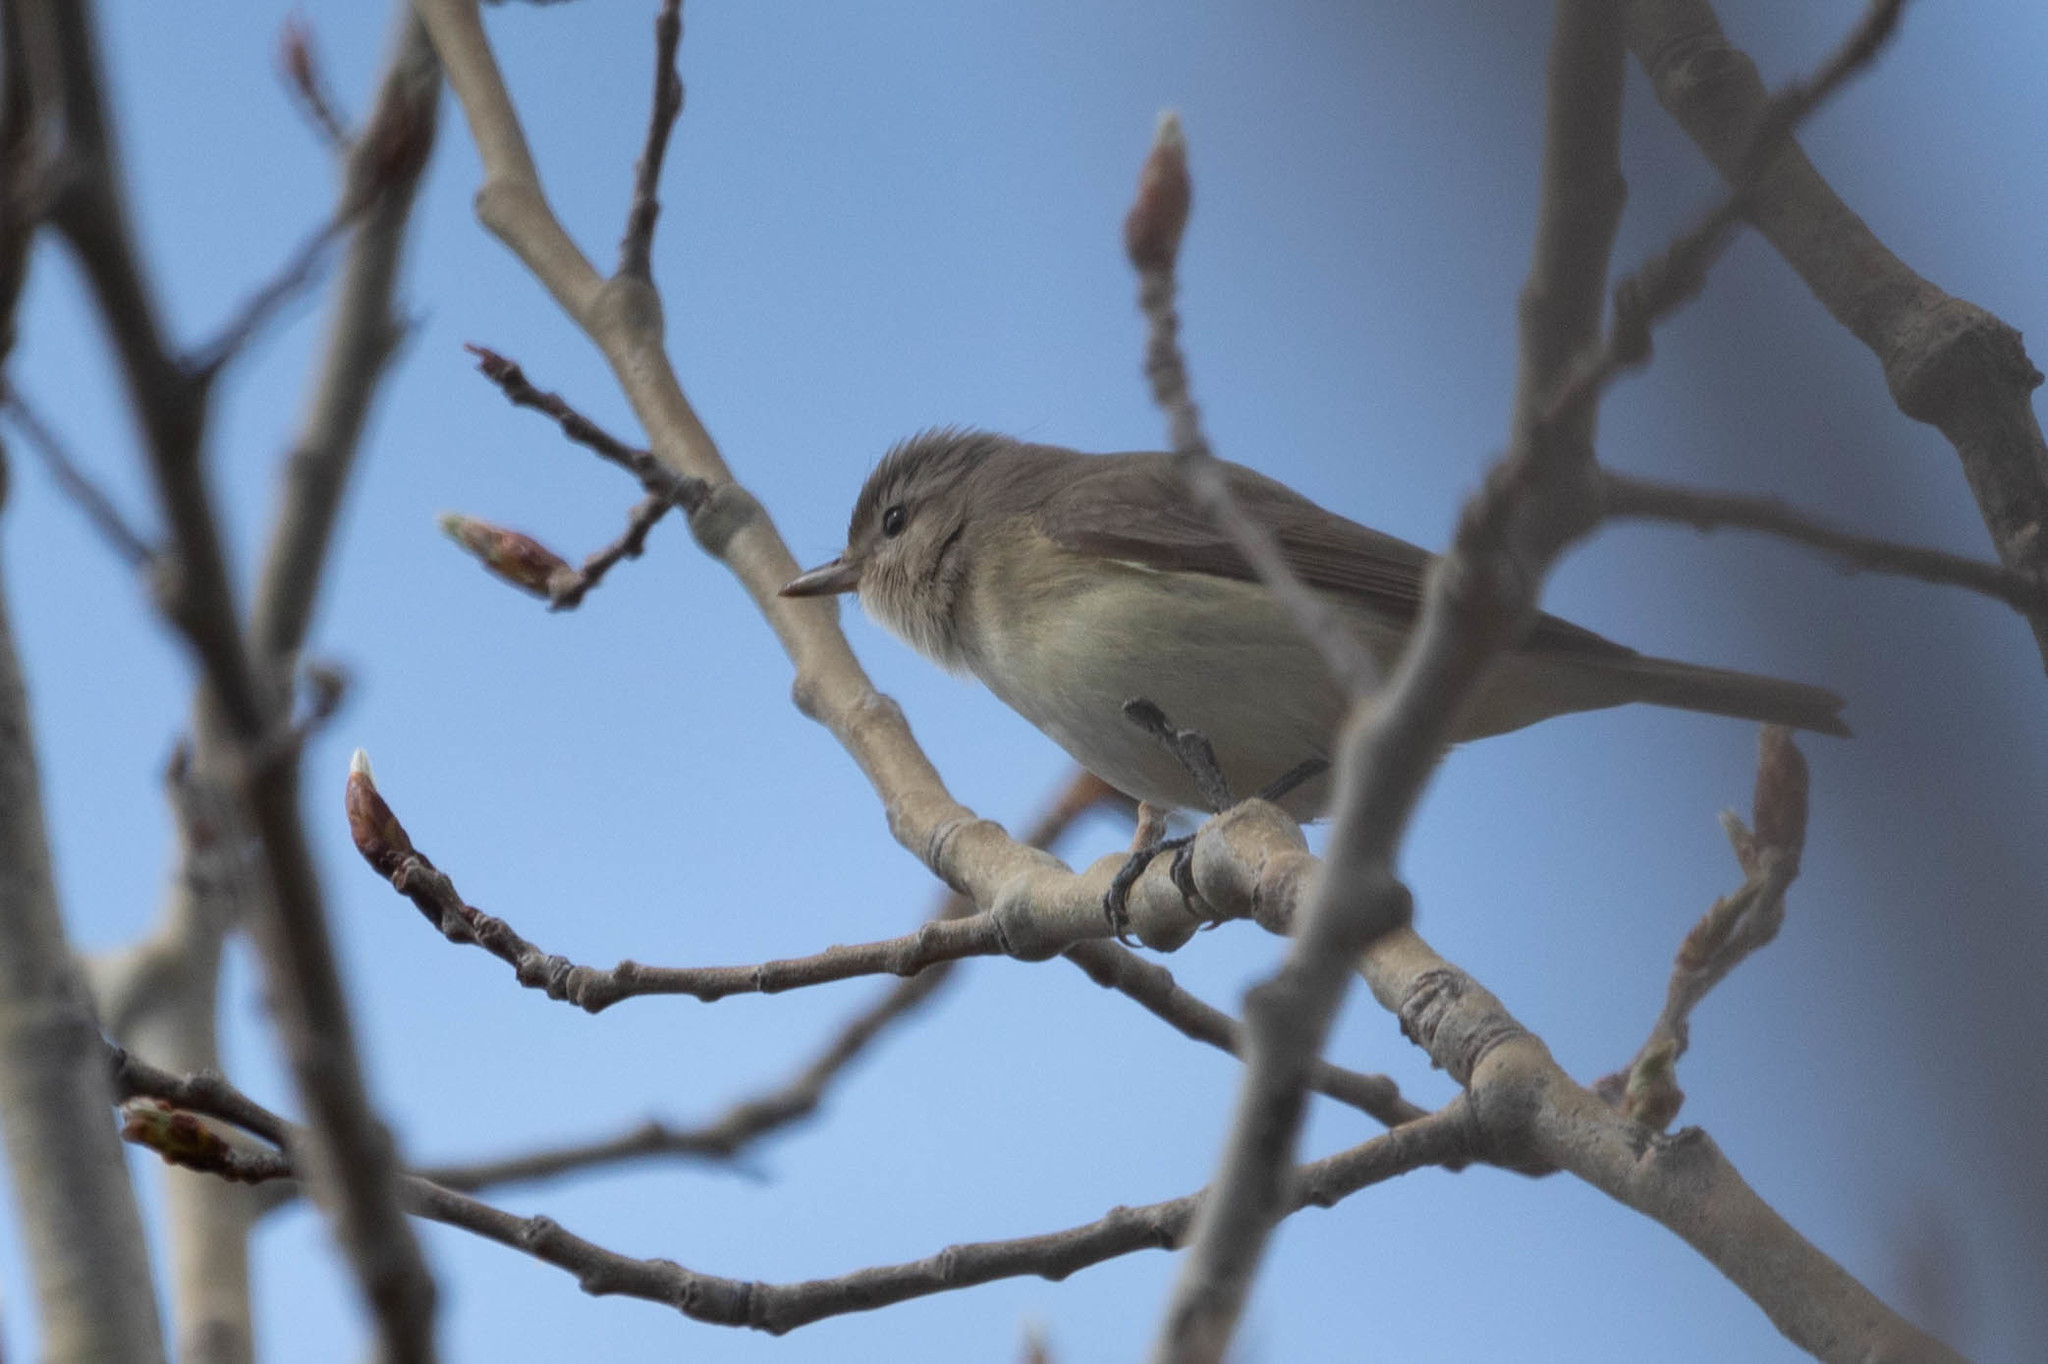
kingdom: Animalia
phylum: Chordata
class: Aves
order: Passeriformes
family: Vireonidae
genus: Vireo
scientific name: Vireo gilvus
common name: Warbling vireo
